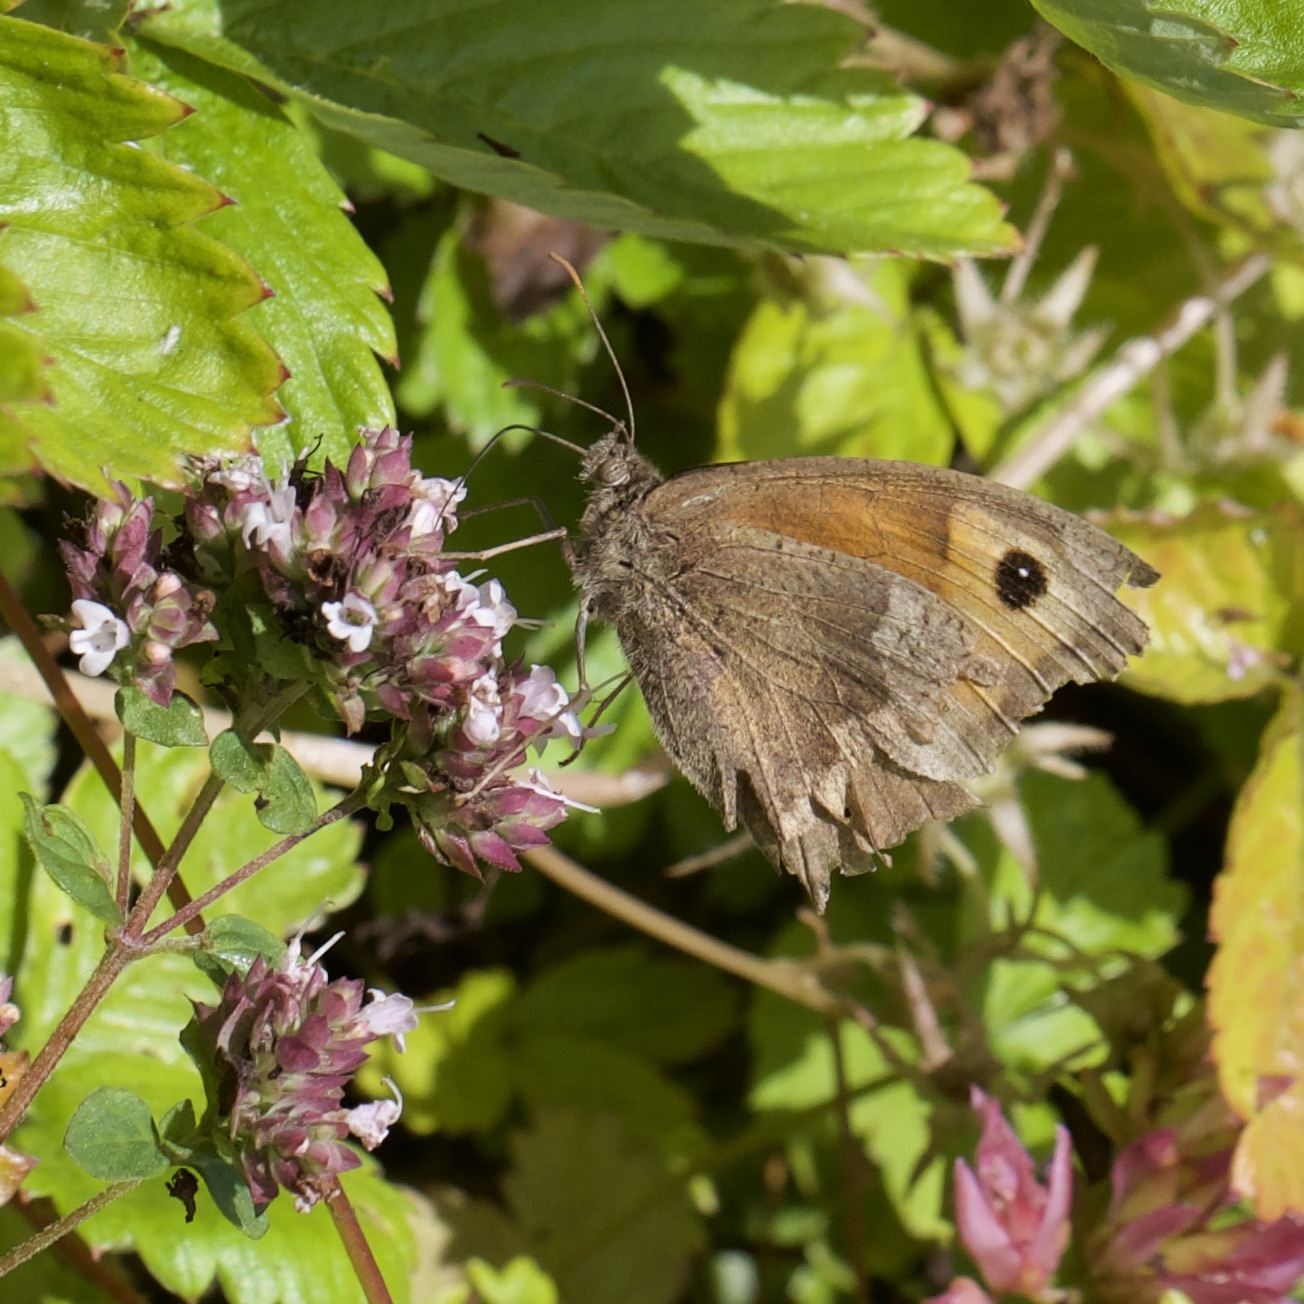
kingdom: Animalia
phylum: Arthropoda
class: Insecta
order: Lepidoptera
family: Nymphalidae
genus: Maniola
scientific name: Maniola jurtina
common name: Meadow brown
